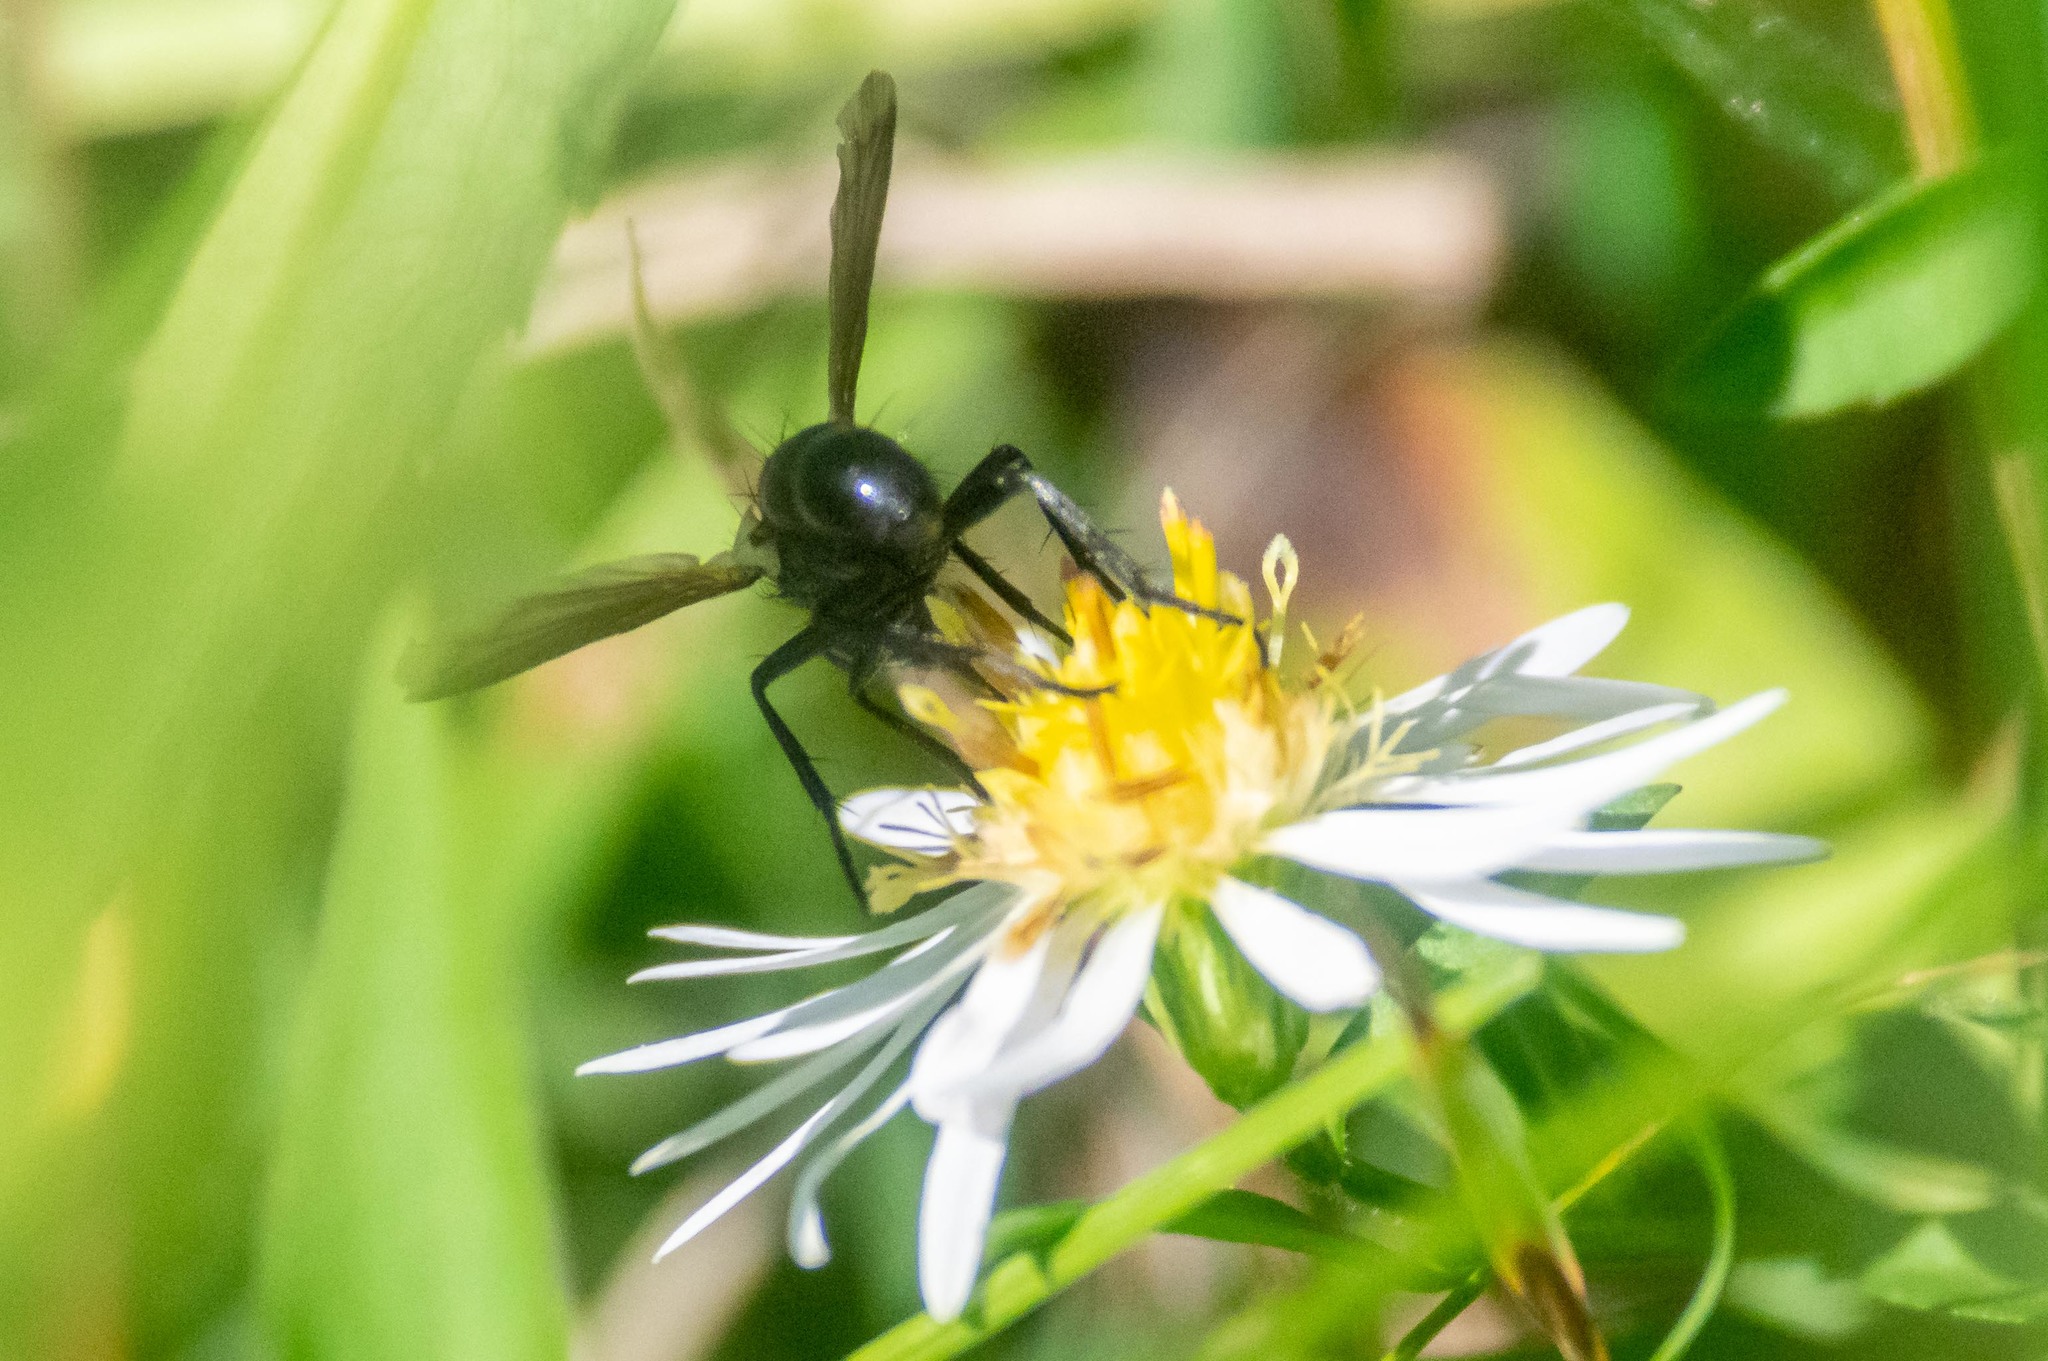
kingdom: Animalia
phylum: Arthropoda
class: Insecta
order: Diptera
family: Tachinidae
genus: Cylindromyia
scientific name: Cylindromyia
